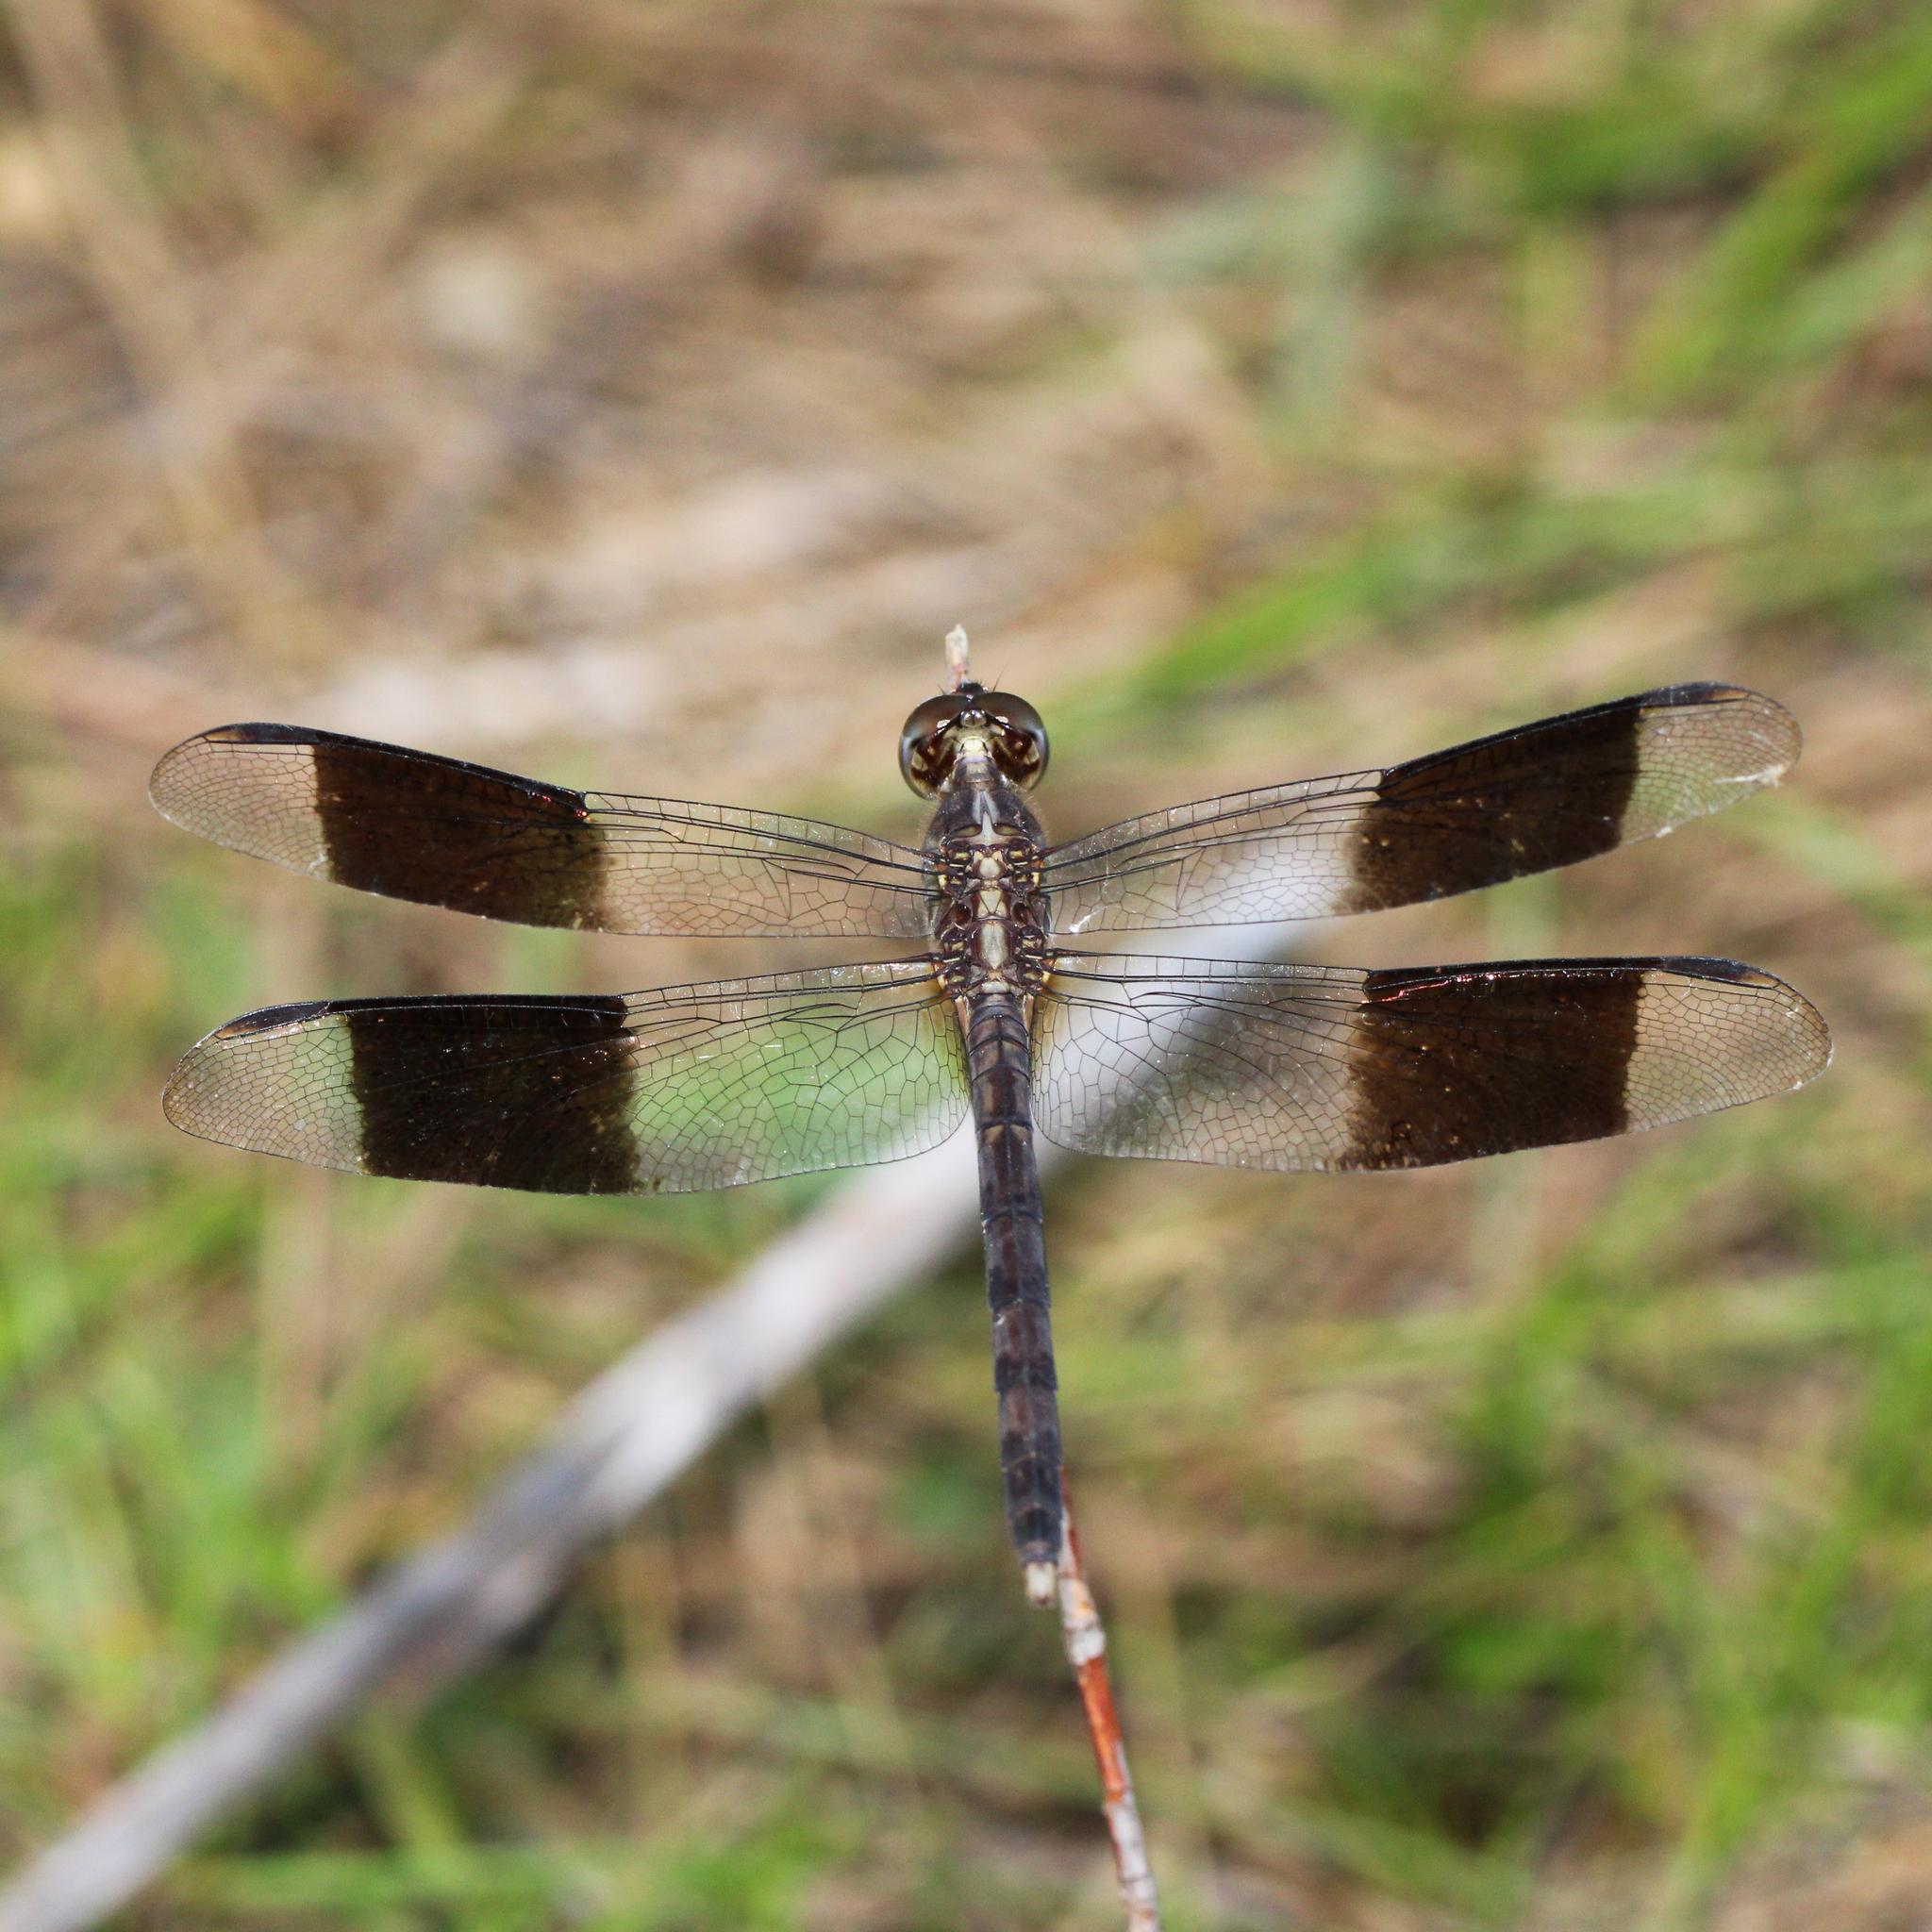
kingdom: Animalia
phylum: Arthropoda
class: Insecta
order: Odonata
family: Libellulidae
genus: Erythrodiplax
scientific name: Erythrodiplax umbrata
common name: Band-winged dragonlet
